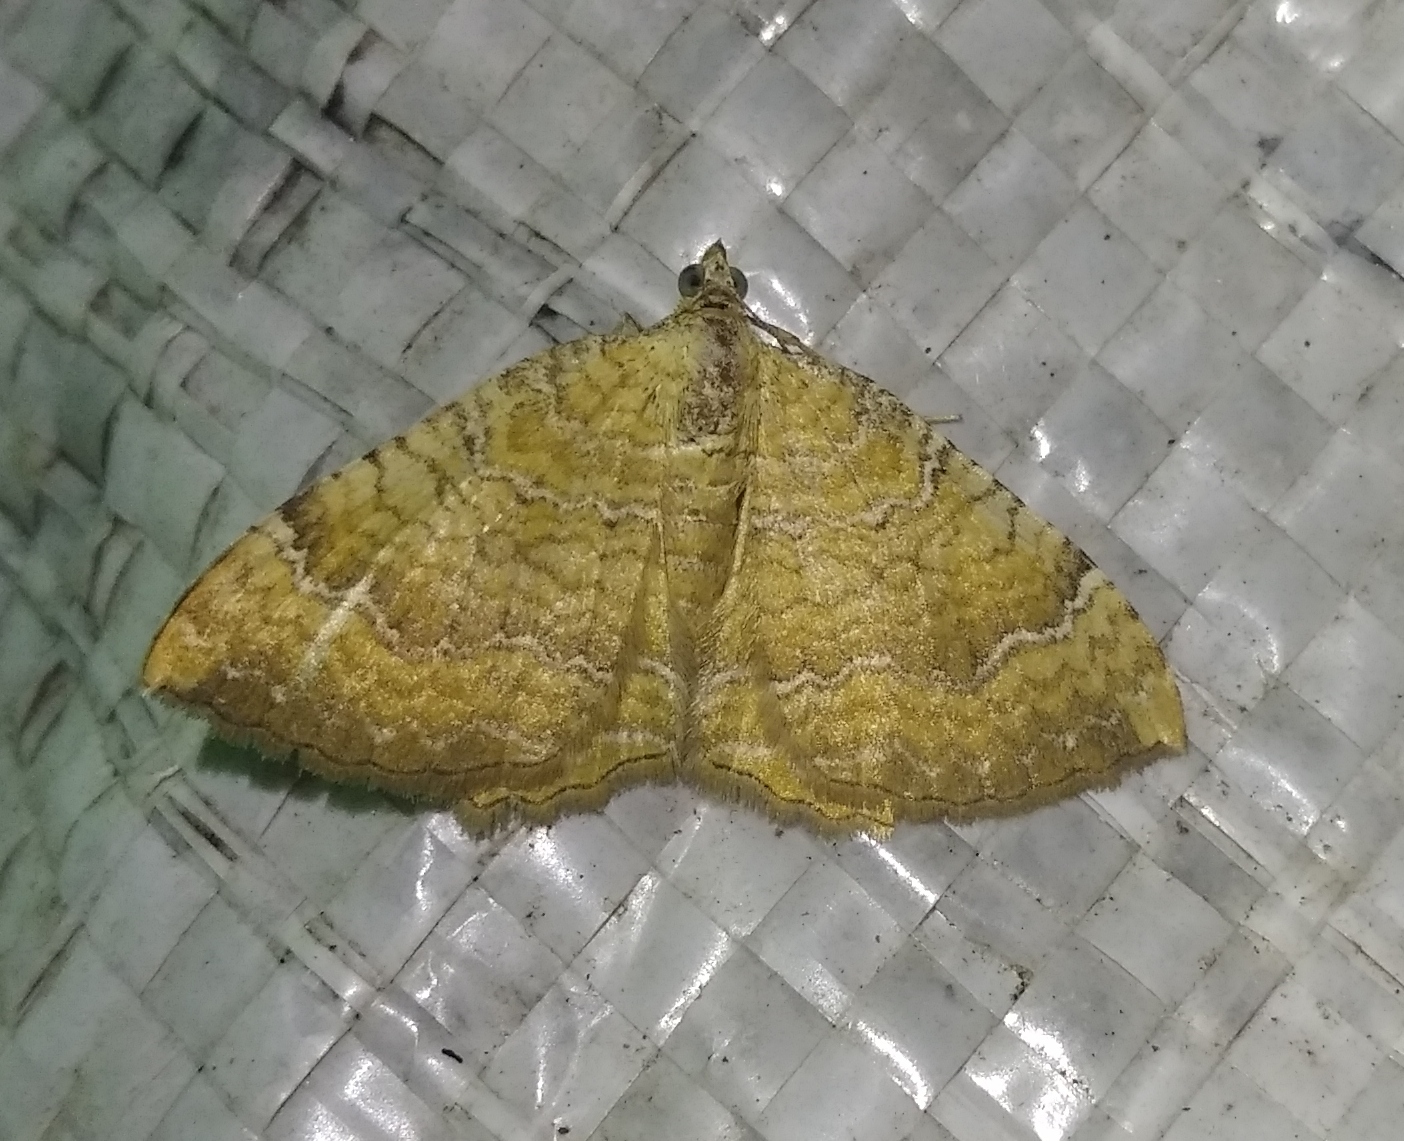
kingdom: Animalia
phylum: Arthropoda
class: Insecta
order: Lepidoptera
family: Geometridae
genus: Camptogramma
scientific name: Camptogramma bilineata
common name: Yellow shell
